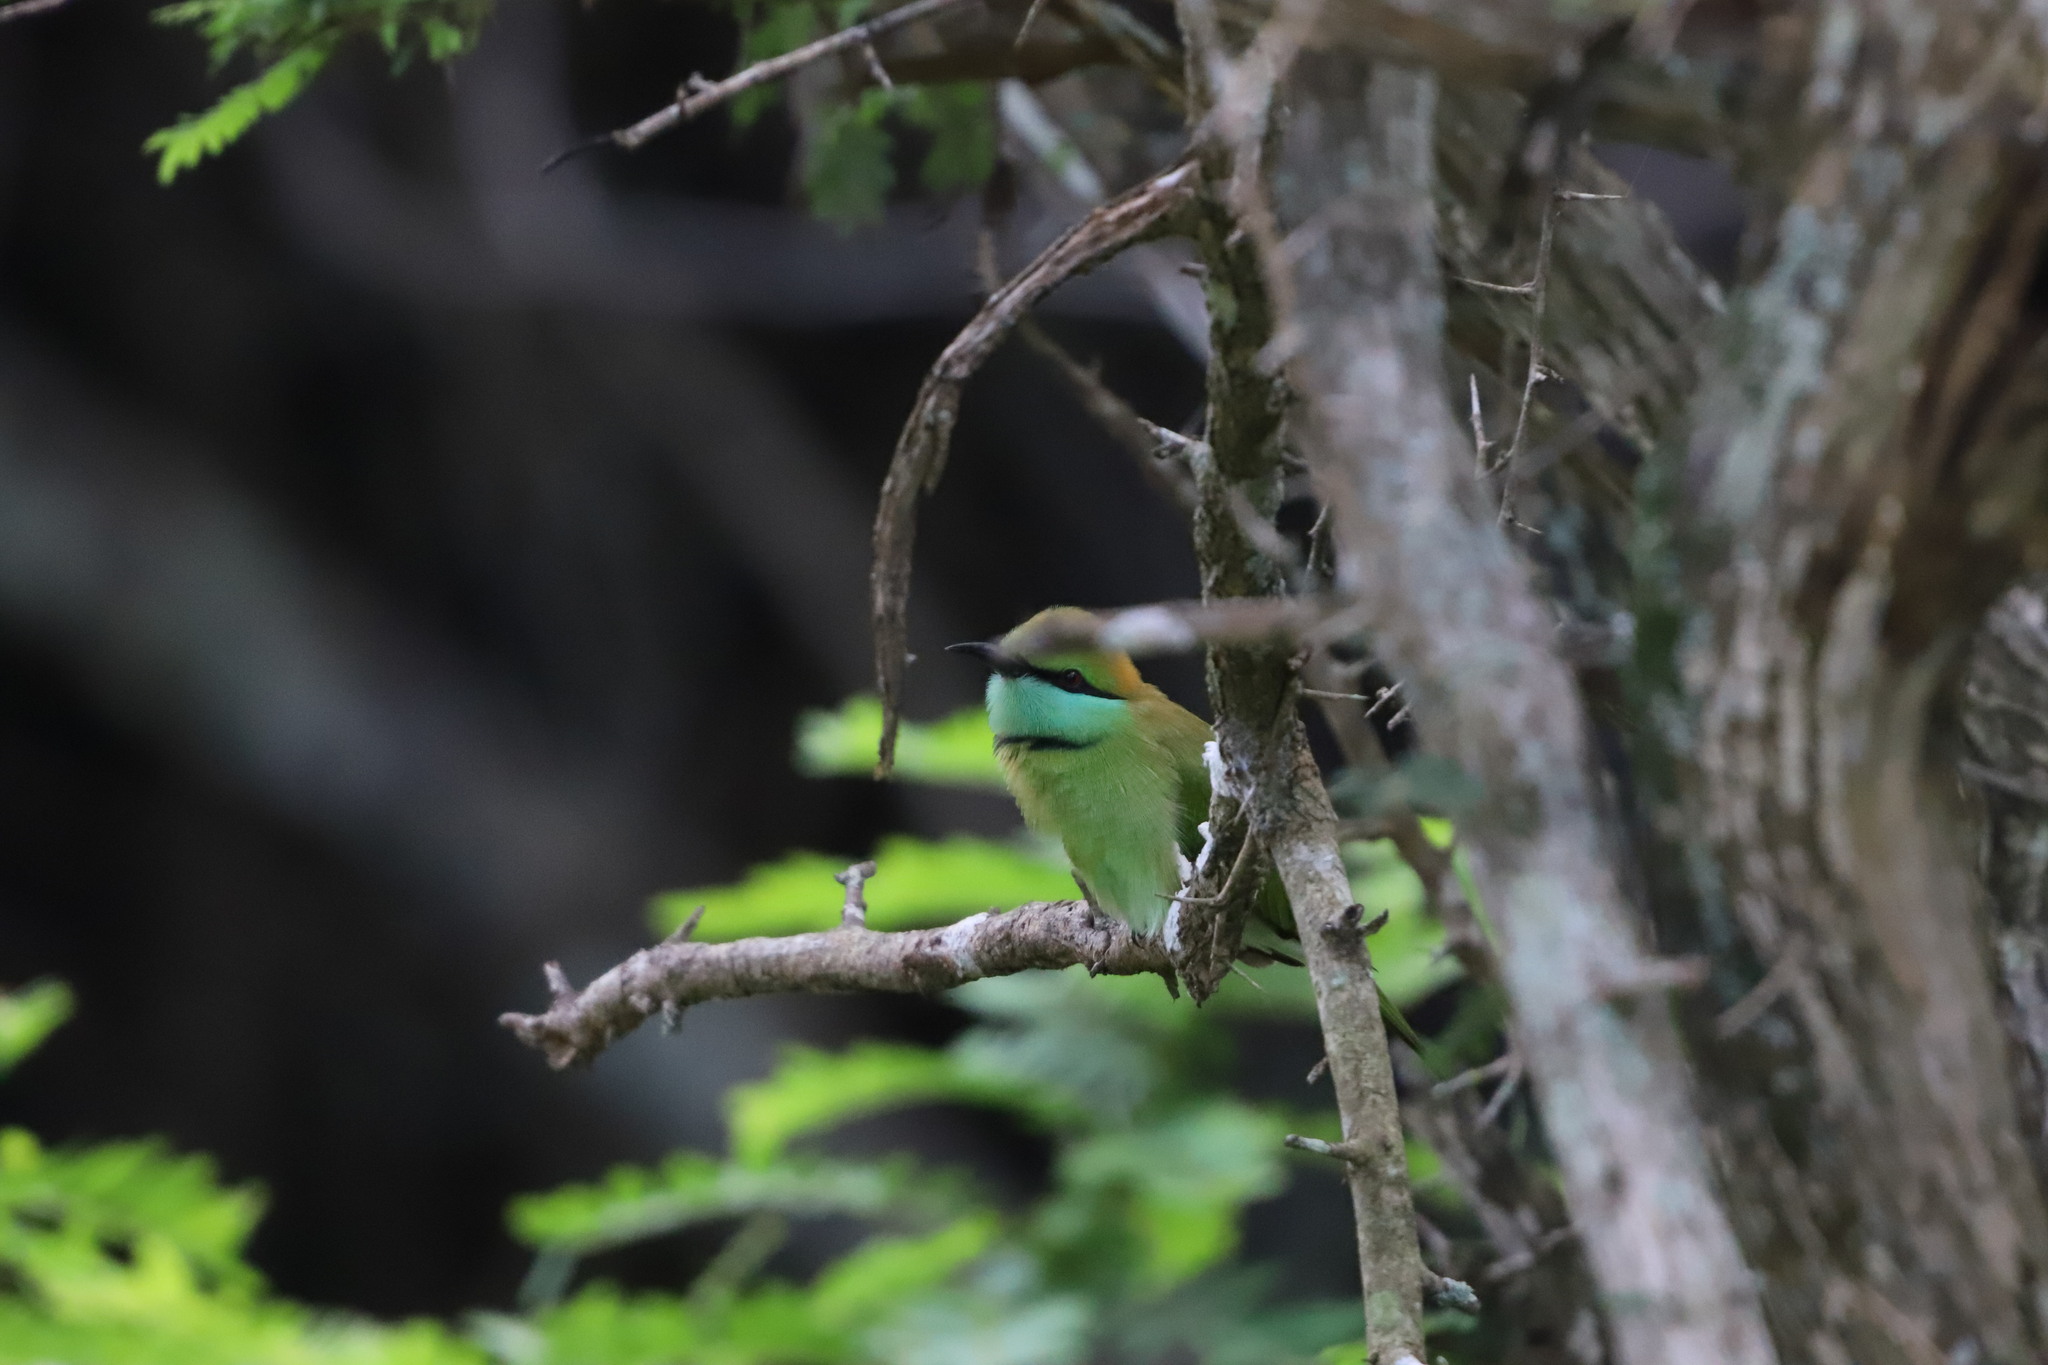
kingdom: Animalia
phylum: Chordata
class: Aves
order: Coraciiformes
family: Meropidae
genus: Merops
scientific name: Merops orientalis
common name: Green bee-eater
